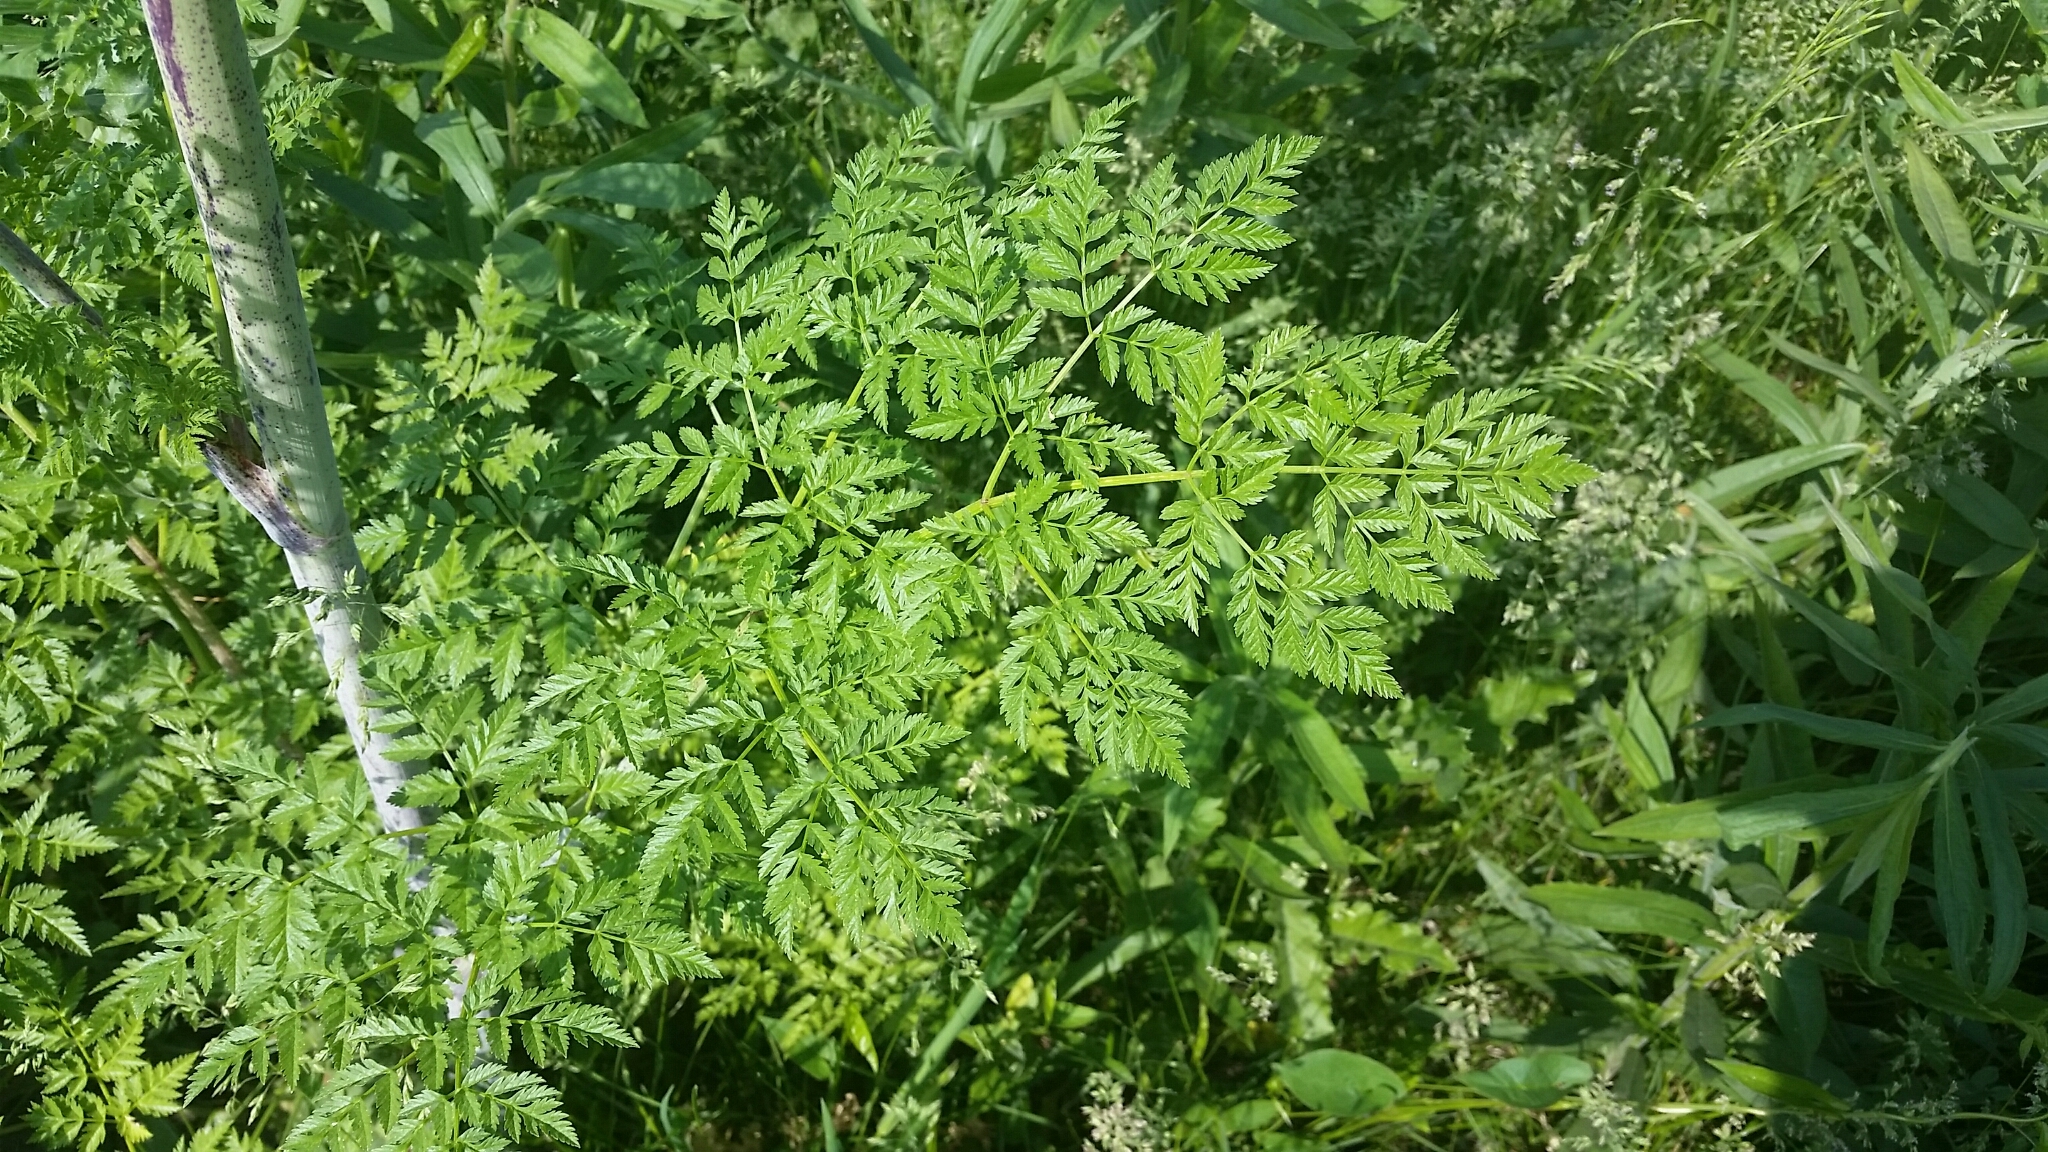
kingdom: Plantae
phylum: Tracheophyta
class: Magnoliopsida
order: Apiales
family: Apiaceae
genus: Conium
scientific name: Conium maculatum
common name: Hemlock
